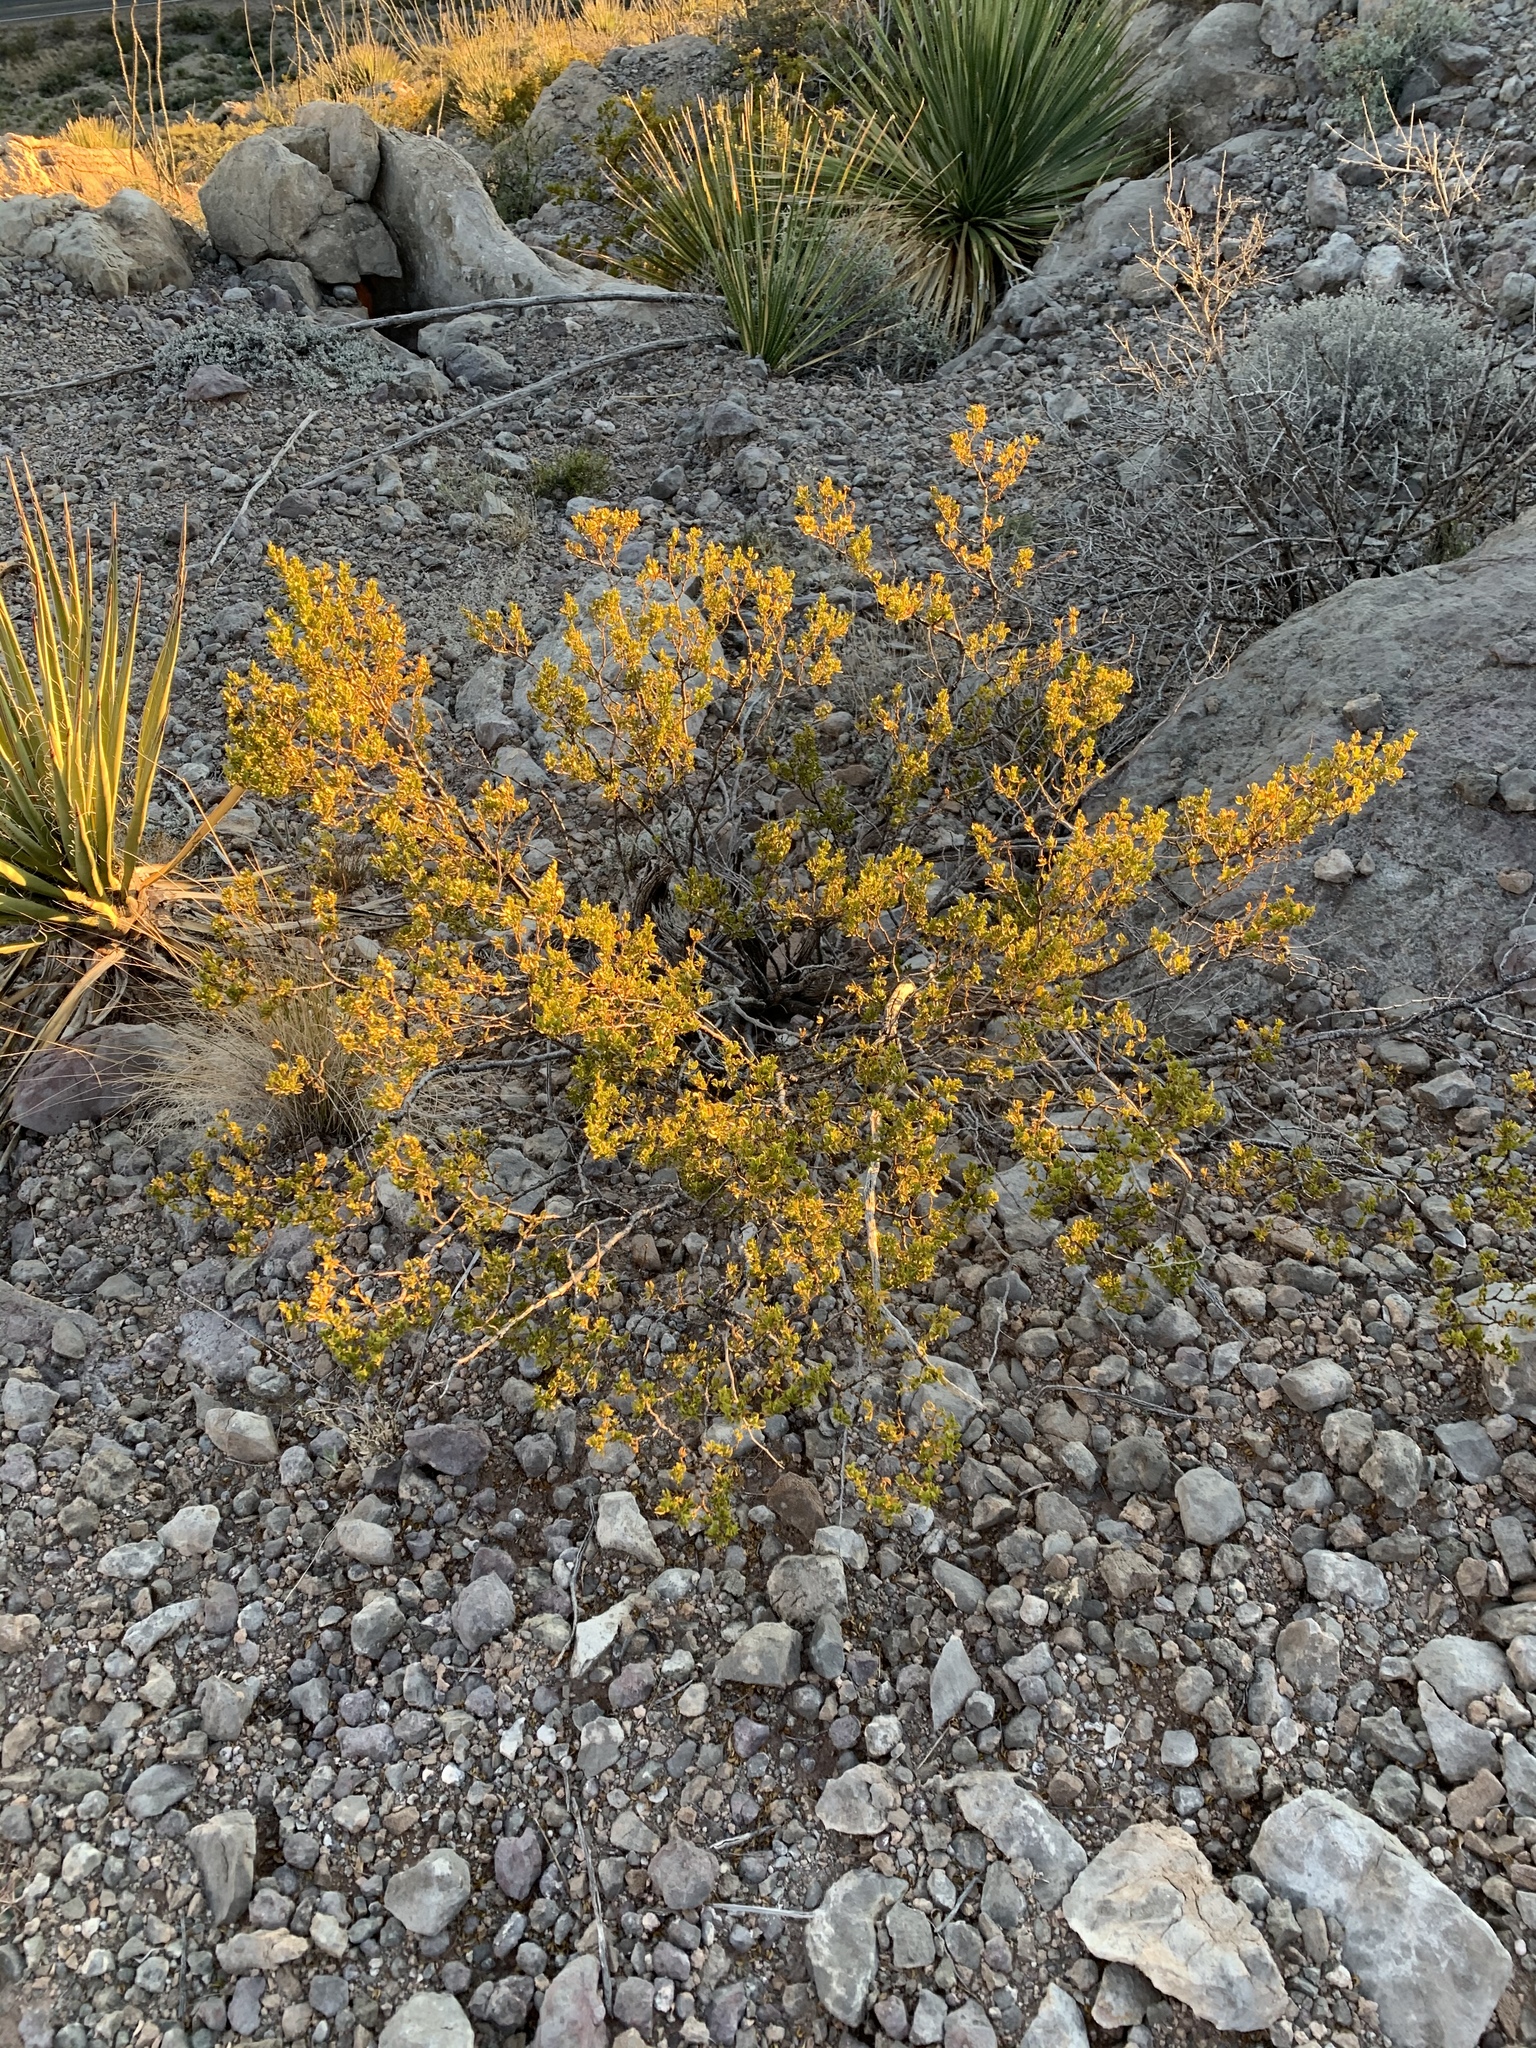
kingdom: Plantae
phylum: Tracheophyta
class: Magnoliopsida
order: Zygophyllales
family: Zygophyllaceae
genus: Larrea
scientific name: Larrea tridentata
